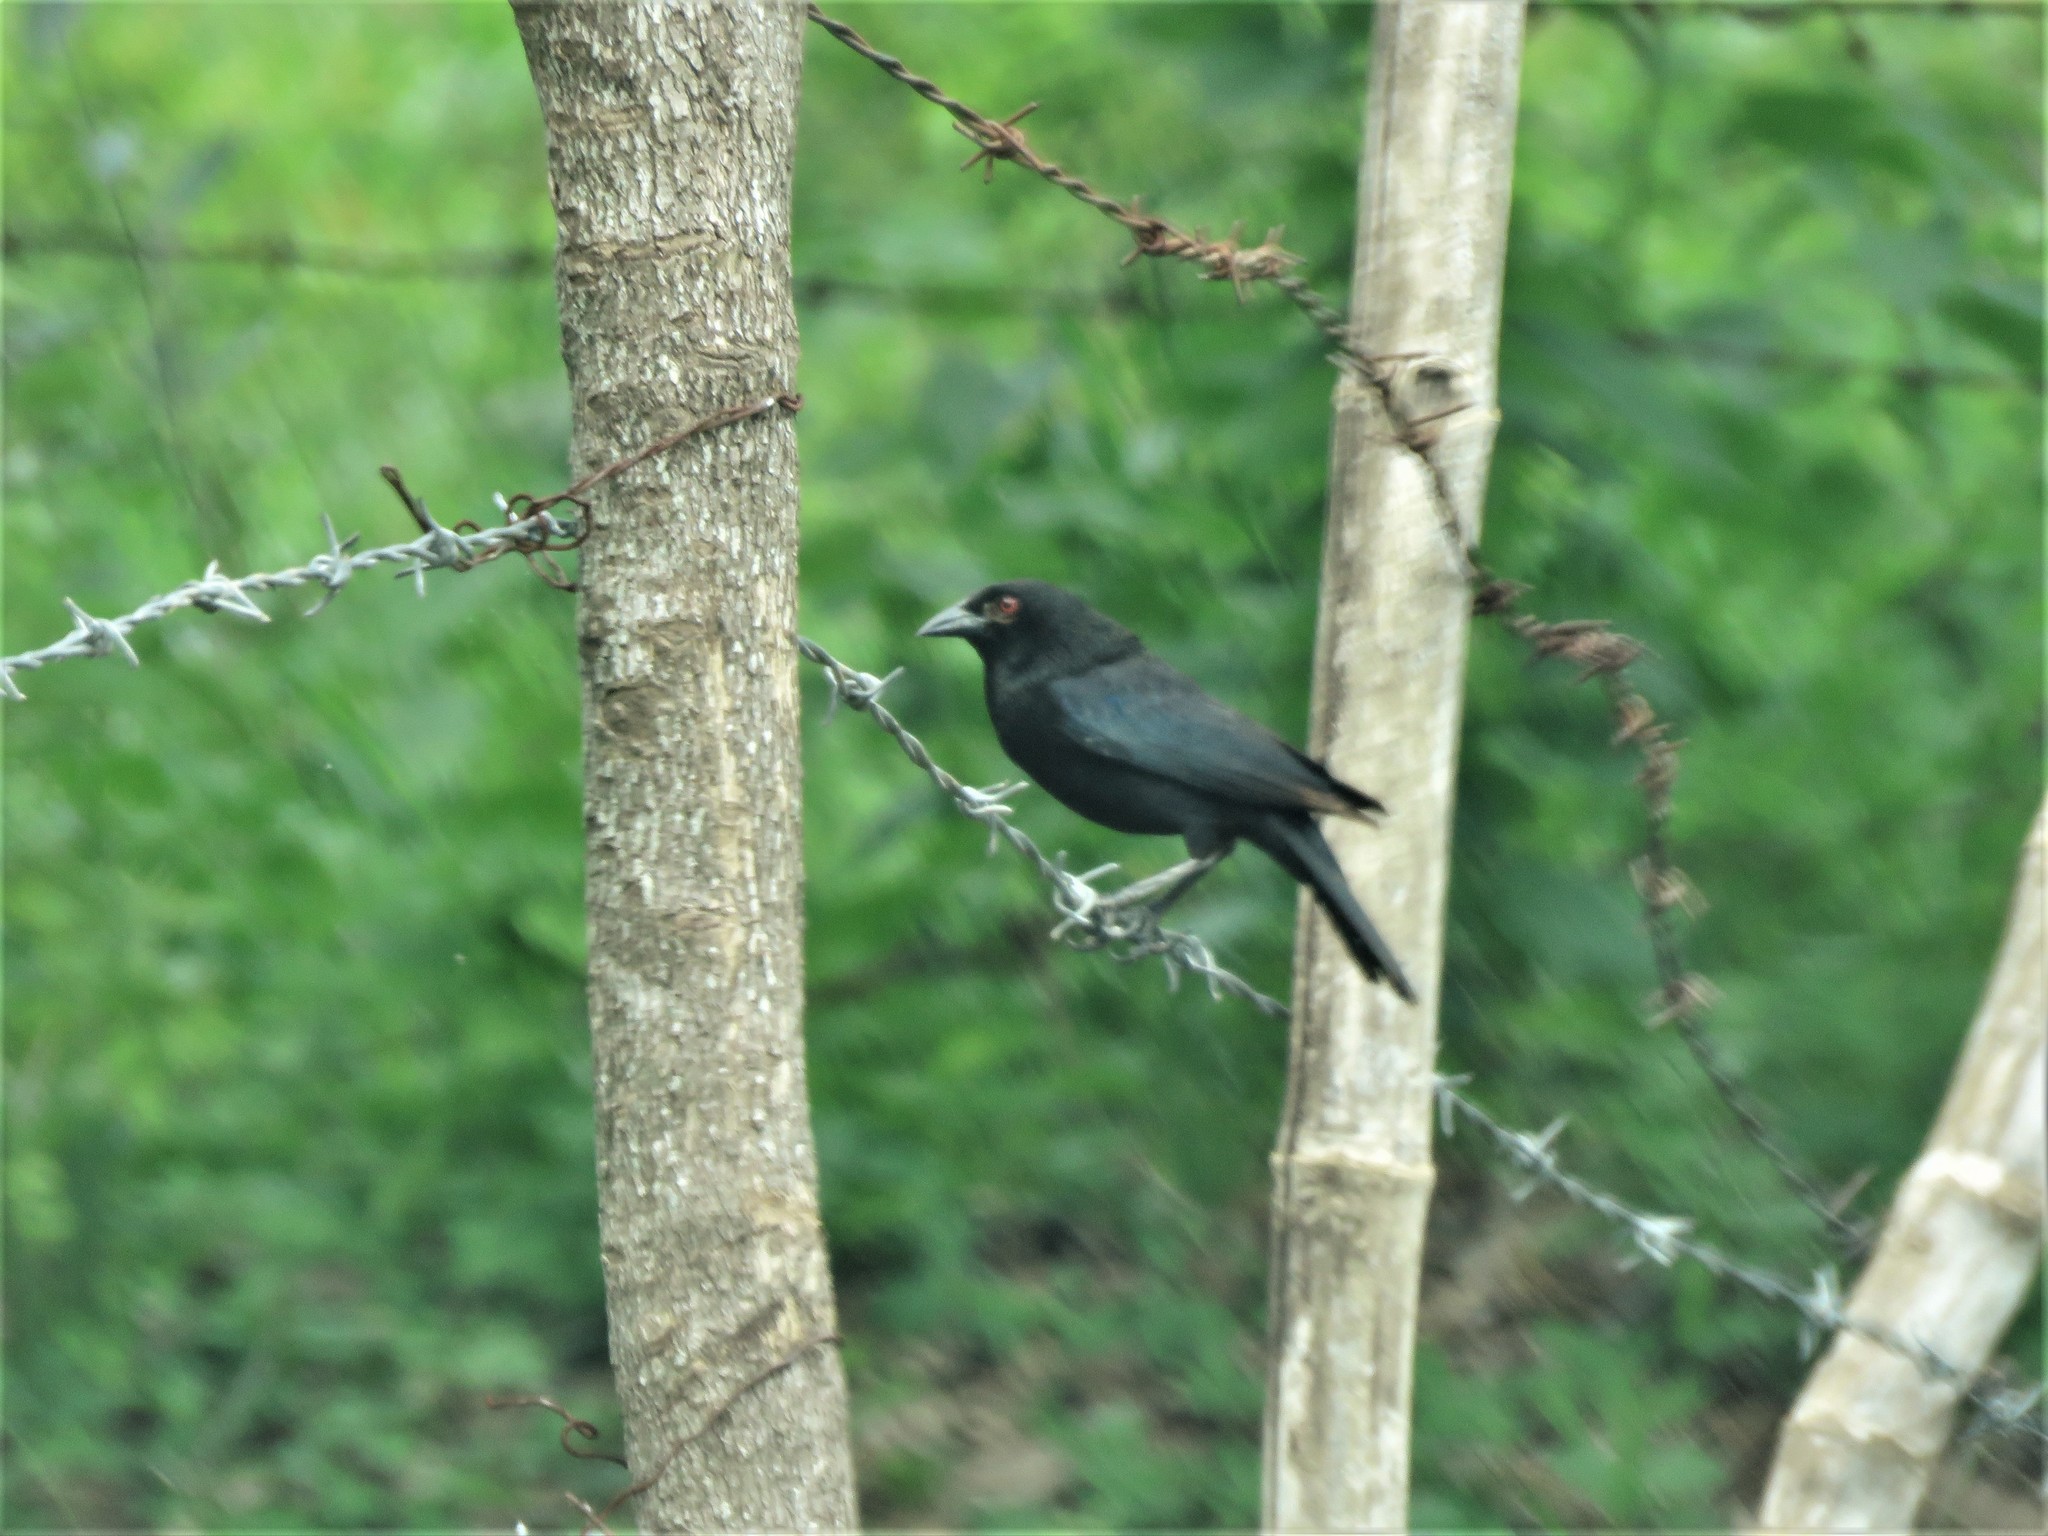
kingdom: Animalia
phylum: Chordata
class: Aves
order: Passeriformes
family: Icteridae
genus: Molothrus
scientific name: Molothrus aeneus
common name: Bronzed cowbird
